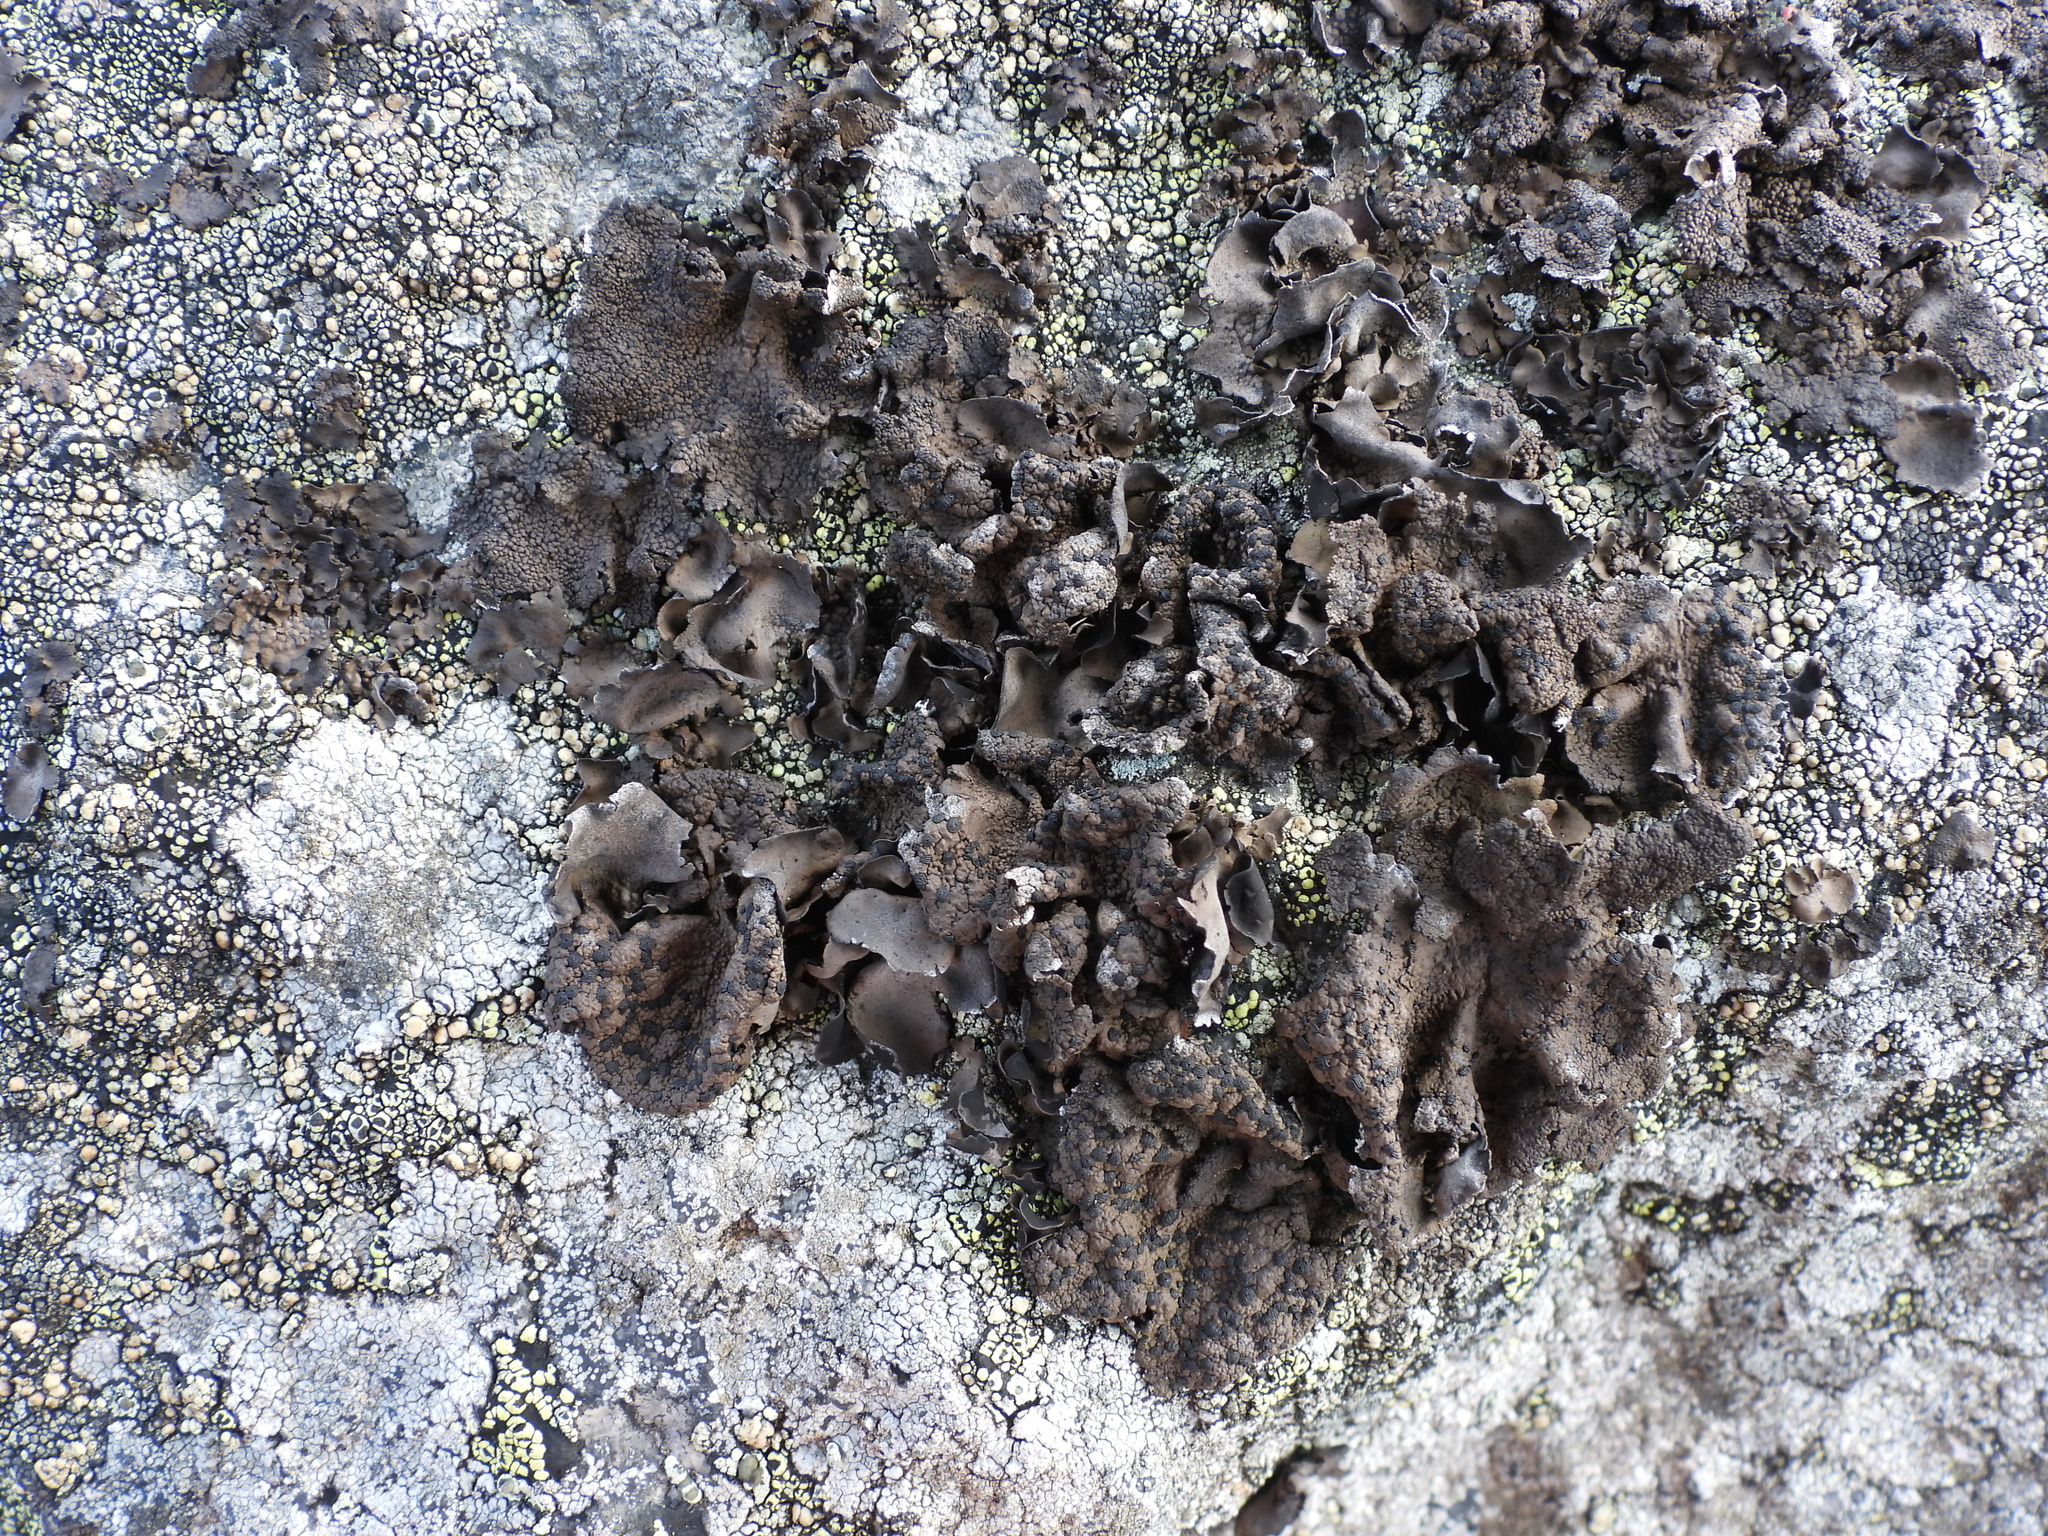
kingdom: Fungi
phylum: Ascomycota
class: Lecanoromycetes
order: Umbilicariales
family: Umbilicariaceae
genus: Umbilicaria
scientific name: Umbilicaria hyperborea
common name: Blistered rock tripe
